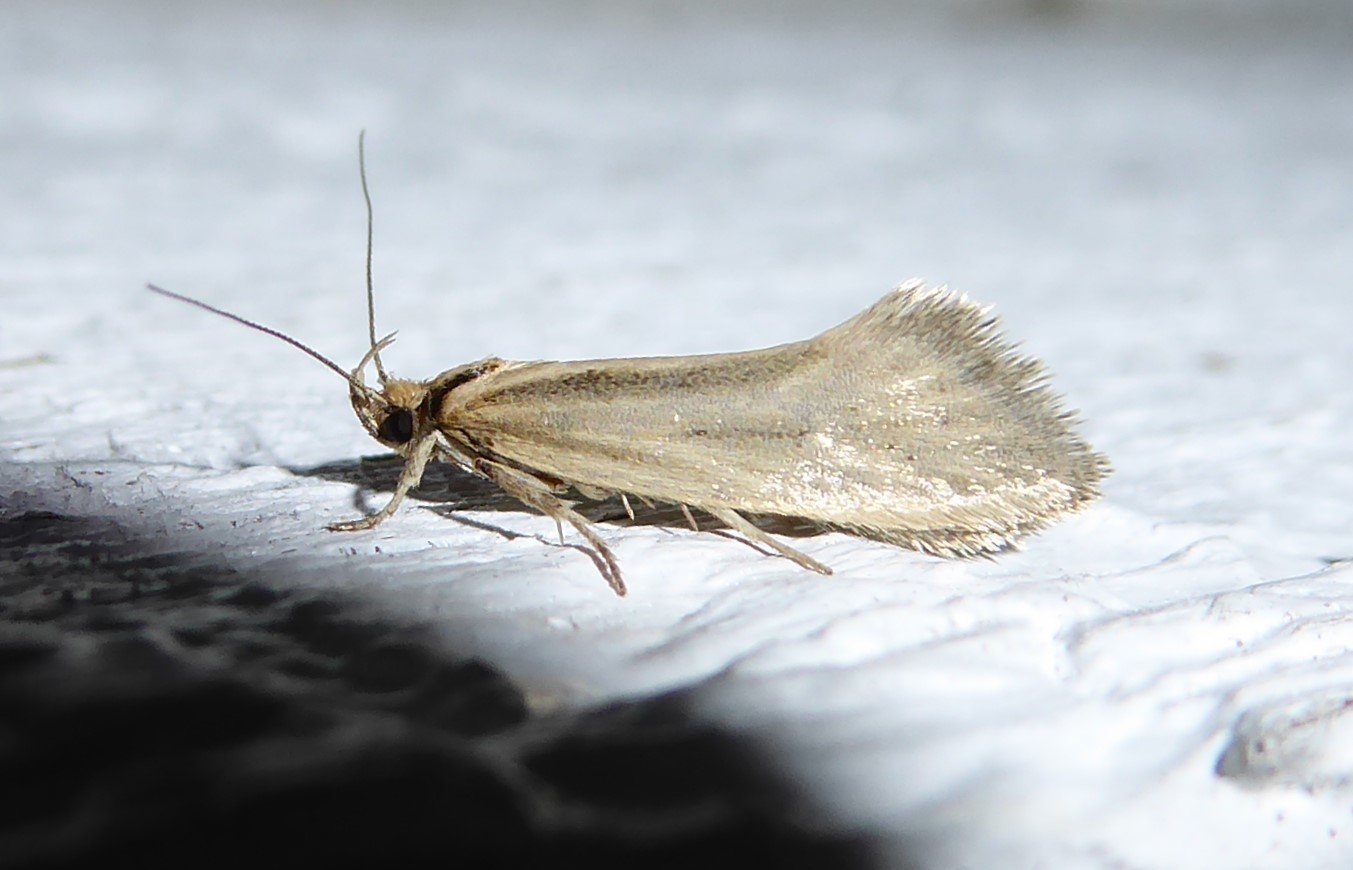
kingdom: Animalia
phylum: Arthropoda
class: Insecta
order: Lepidoptera
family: Oecophoridae
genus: Tingena
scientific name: Tingena chloradelpha
